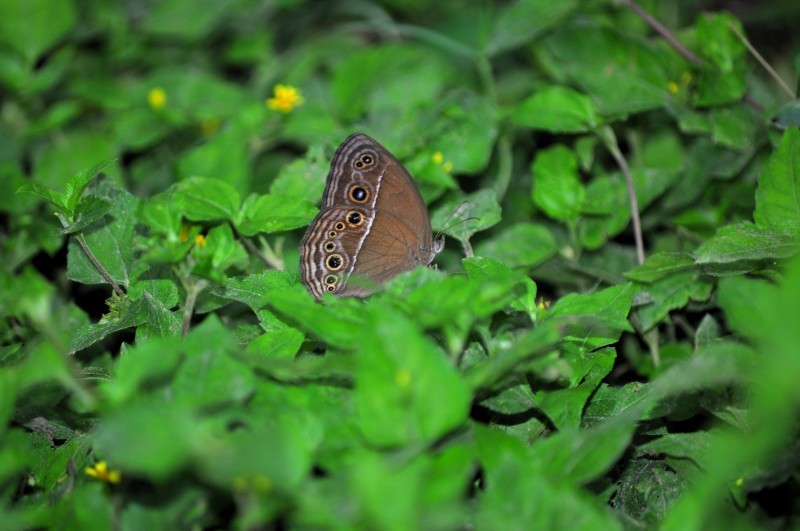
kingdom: Animalia
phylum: Arthropoda
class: Insecta
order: Lepidoptera
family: Nymphalidae
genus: Mycalesis
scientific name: Mycalesis perseus
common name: Dingy bushbrown
